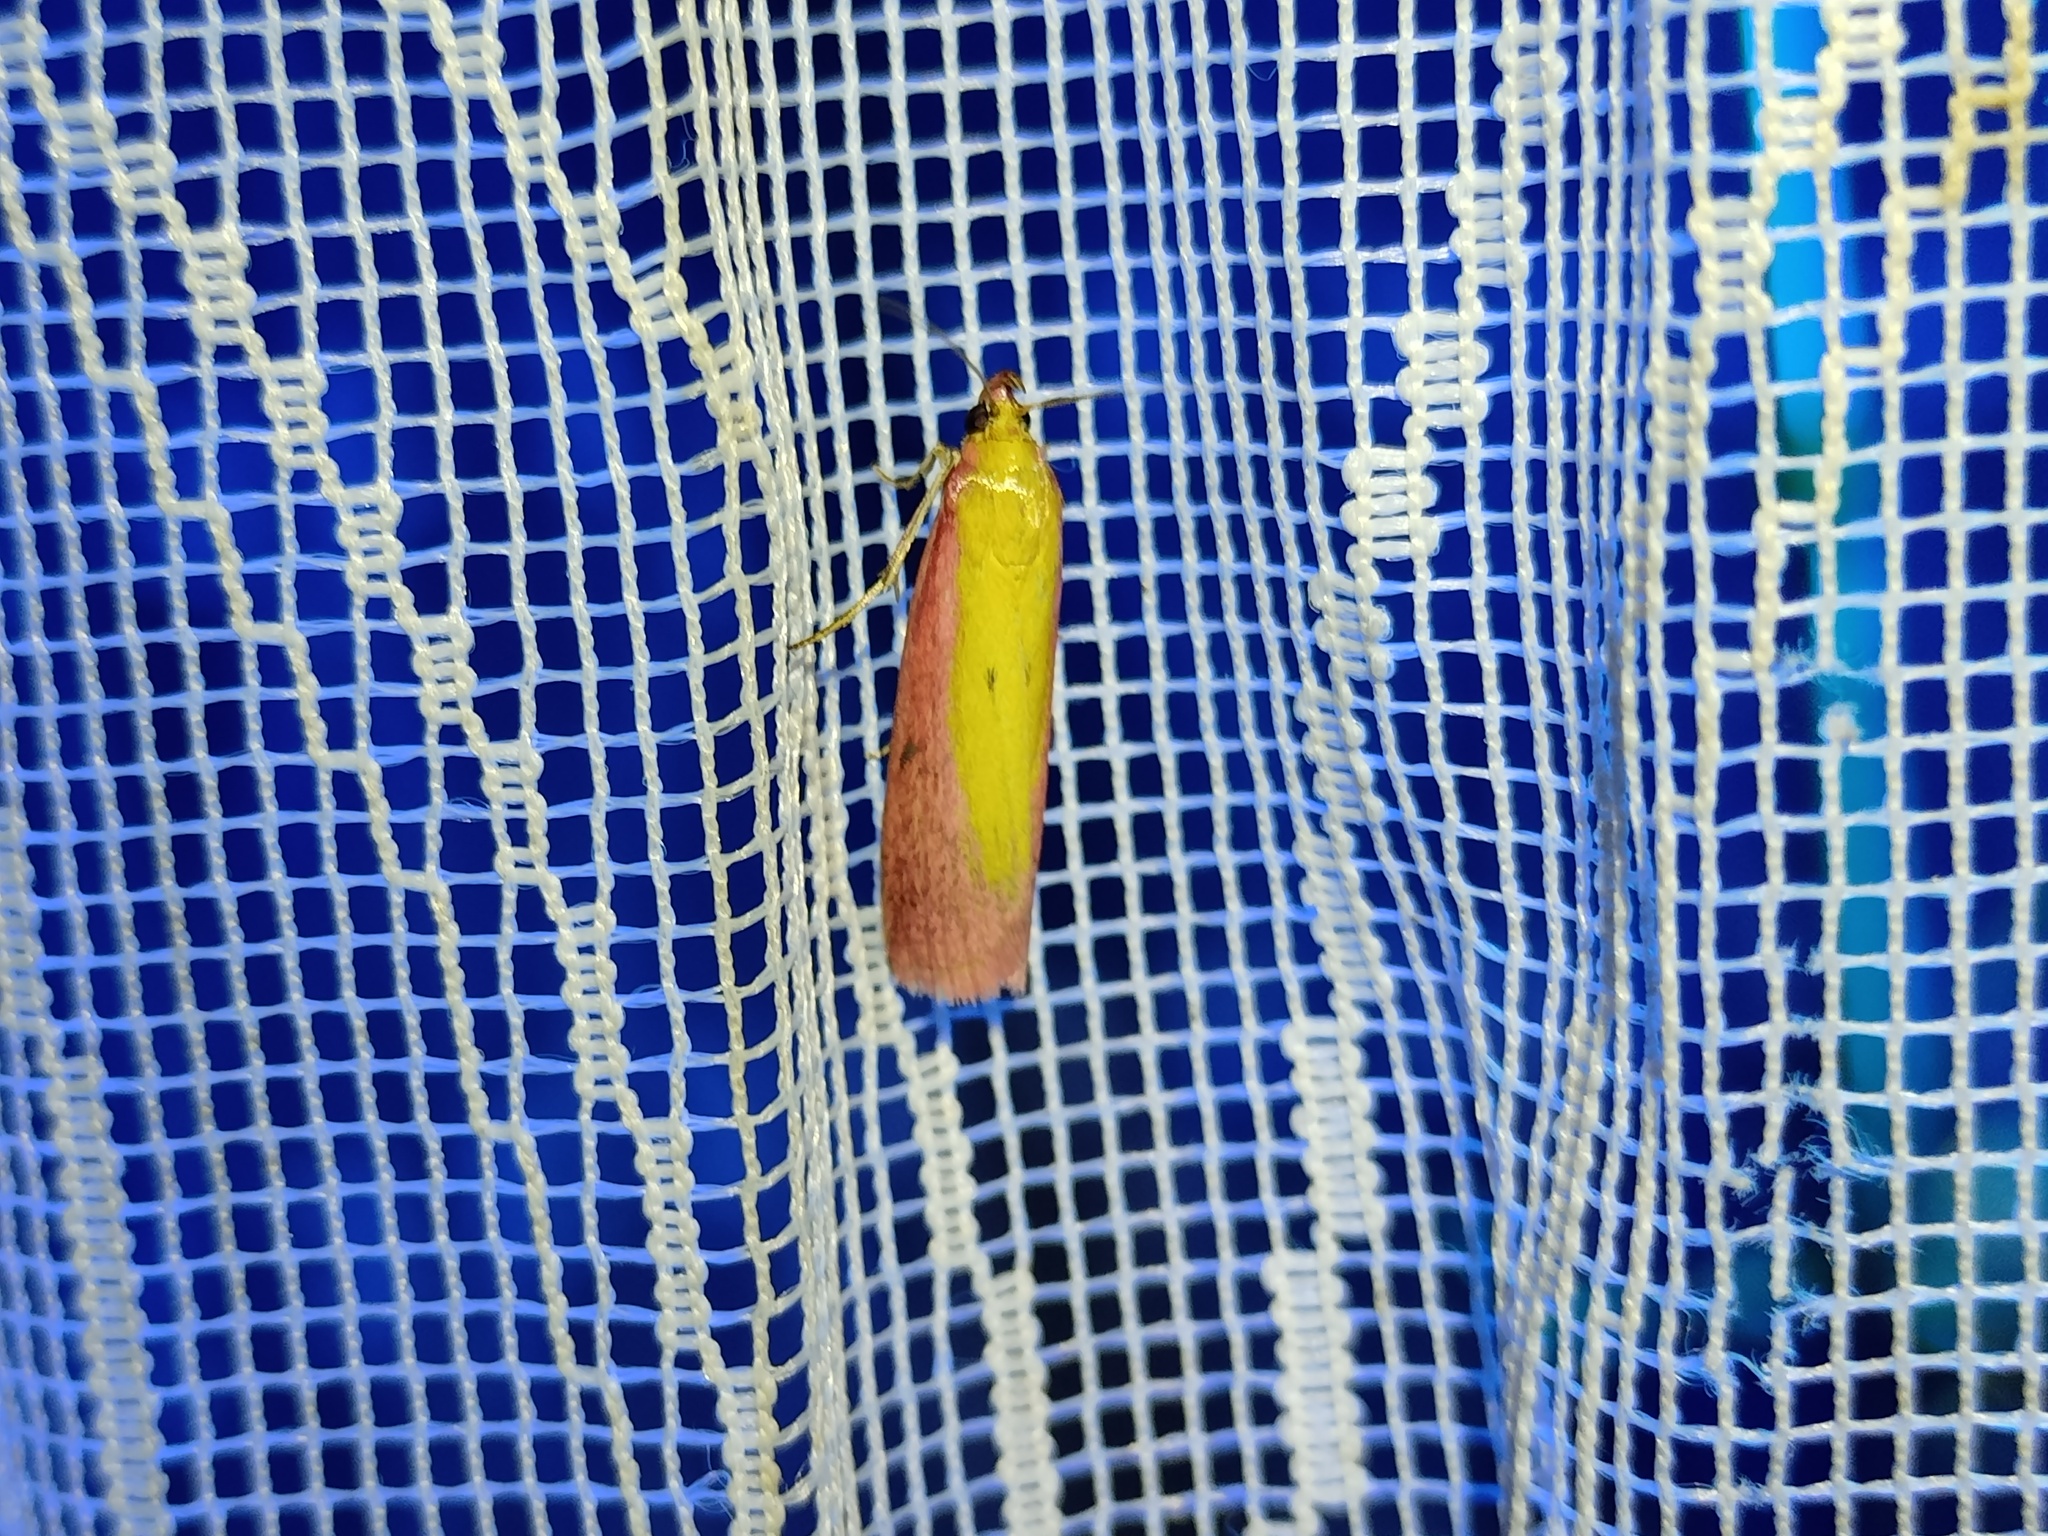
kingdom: Animalia
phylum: Arthropoda
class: Insecta
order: Lepidoptera
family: Pyralidae
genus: Oncocera
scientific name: Oncocera semirubella
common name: Rosy-striped knot-horn
